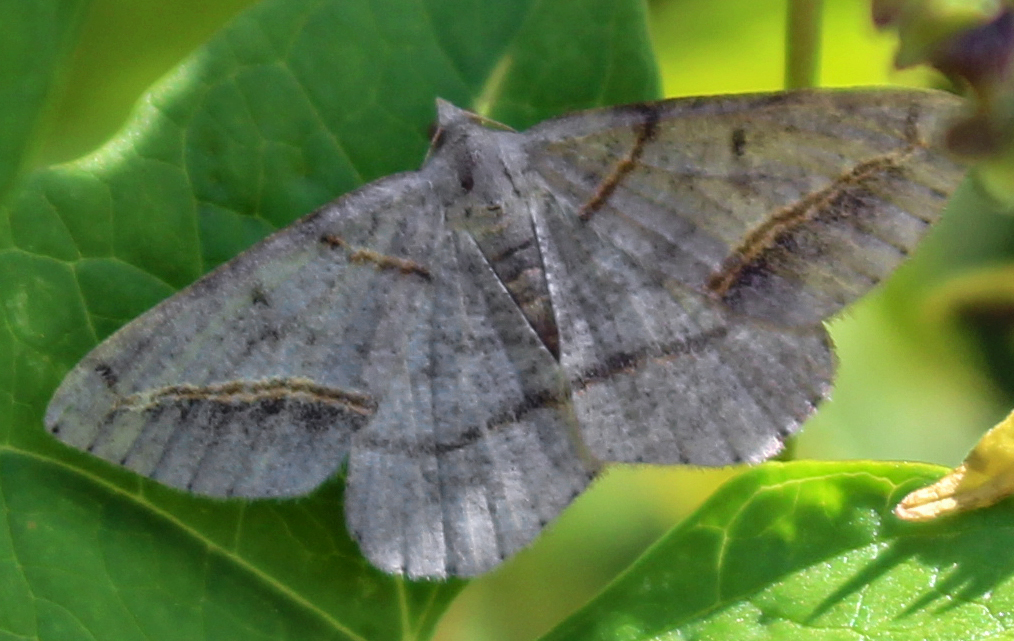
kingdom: Animalia
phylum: Arthropoda
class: Insecta
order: Lepidoptera
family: Geometridae
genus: Digrammia
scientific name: Digrammia mellistrigata
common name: Yellow-lined angle
